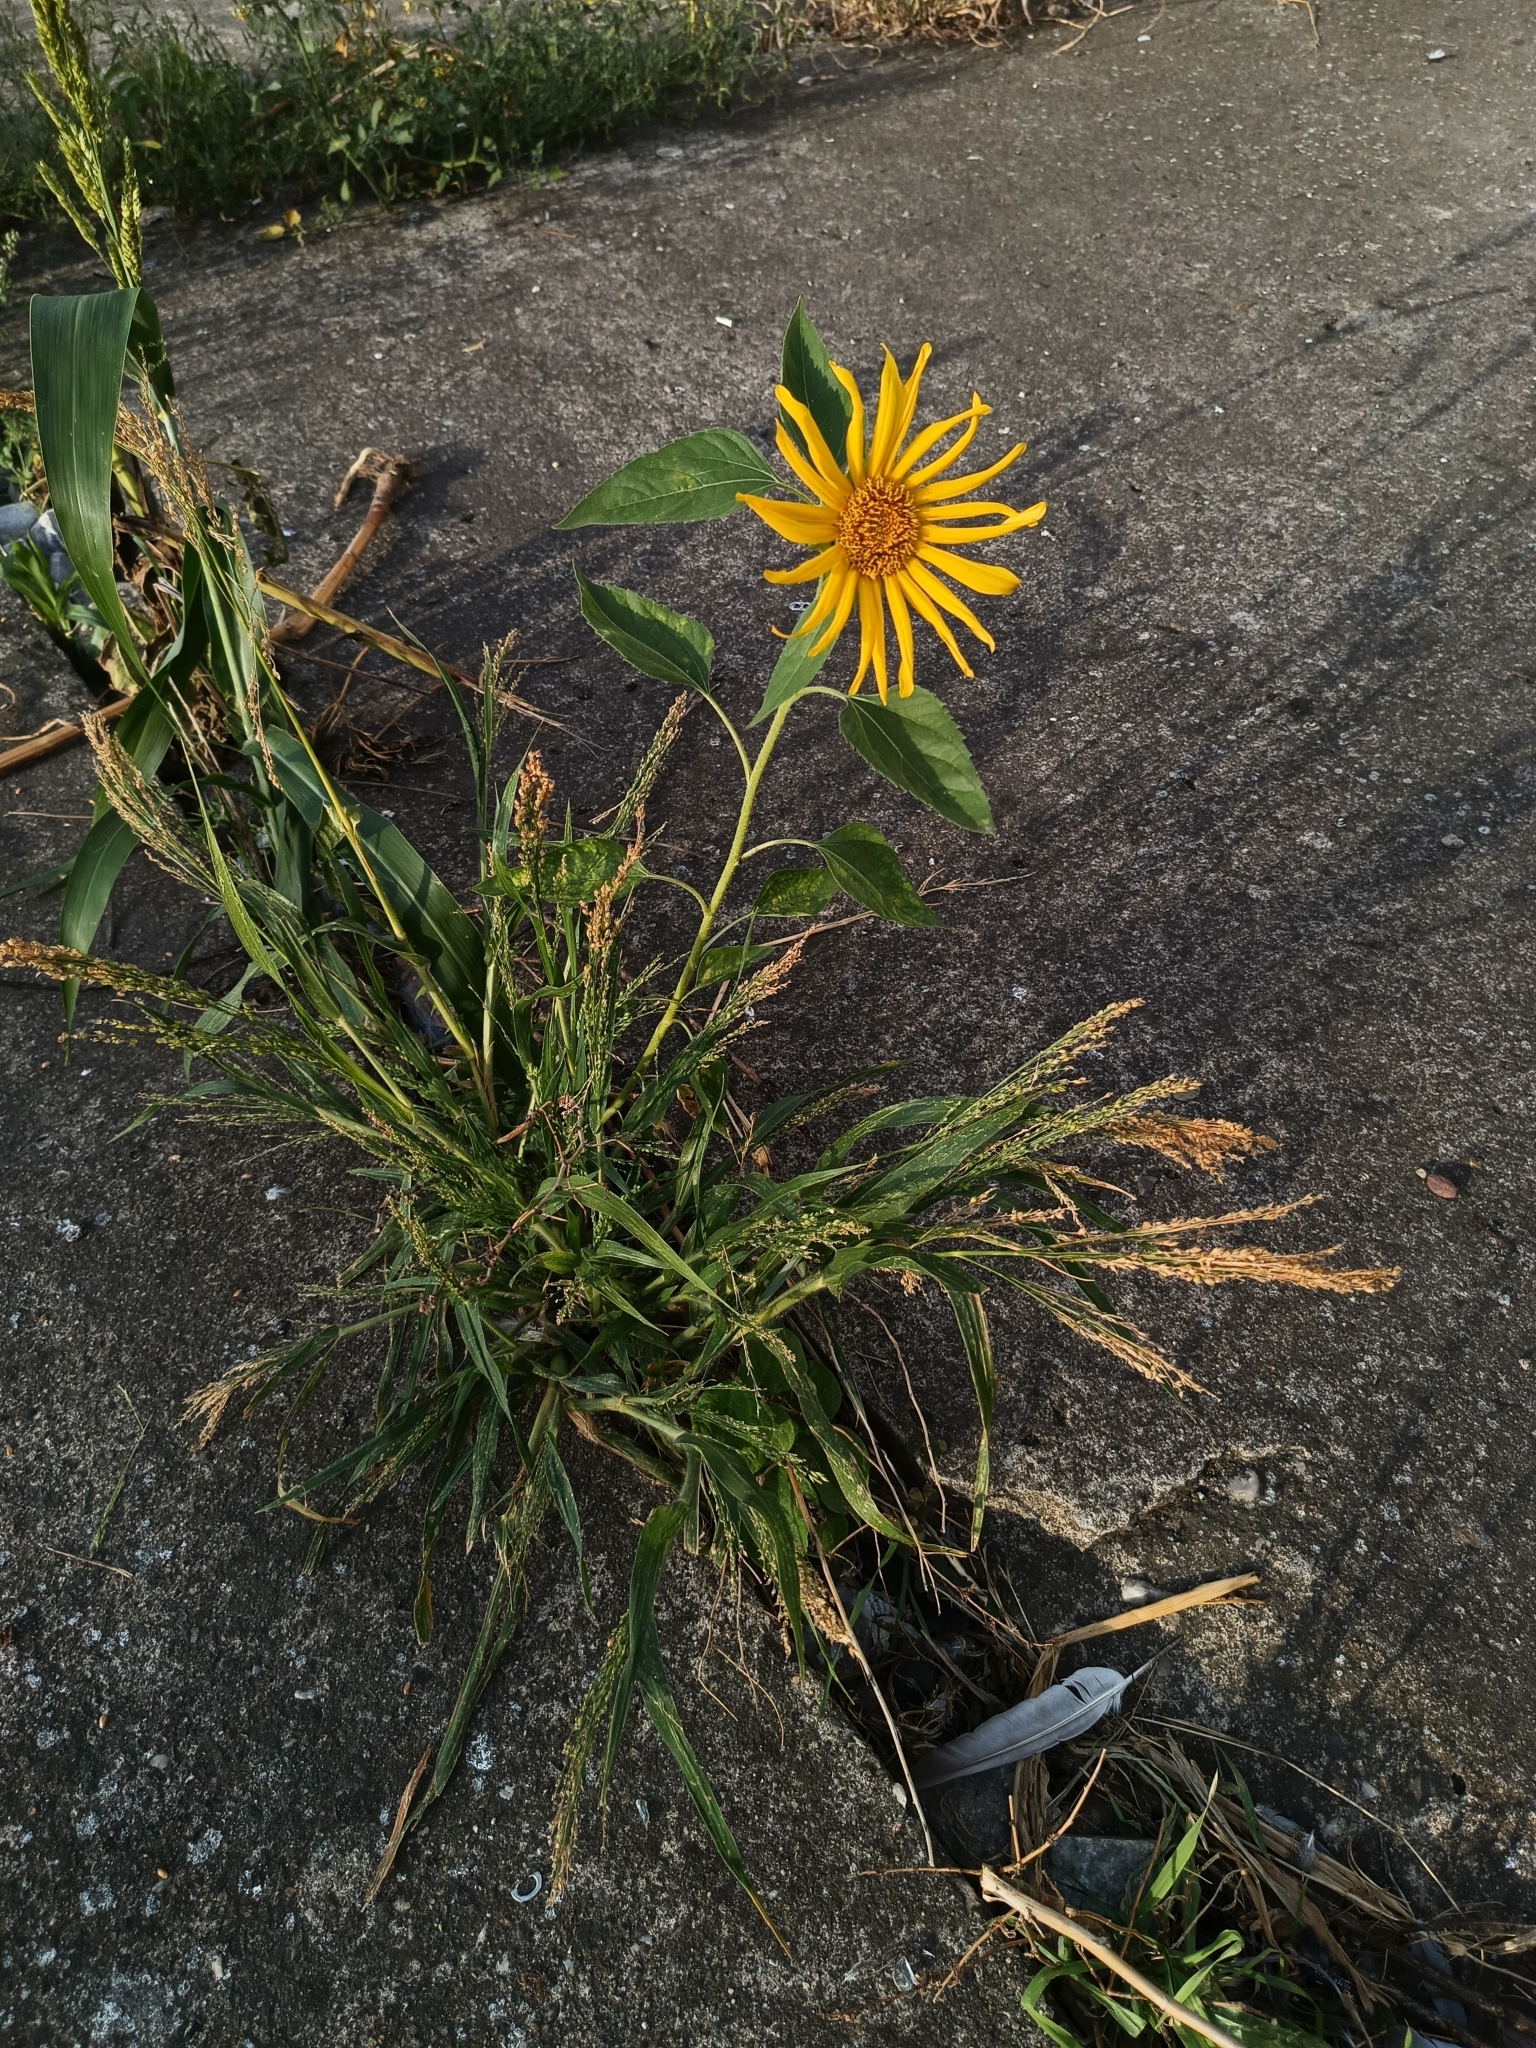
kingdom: Plantae
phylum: Tracheophyta
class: Magnoliopsida
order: Asterales
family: Asteraceae
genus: Helianthus
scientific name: Helianthus annuus
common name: Sunflower
